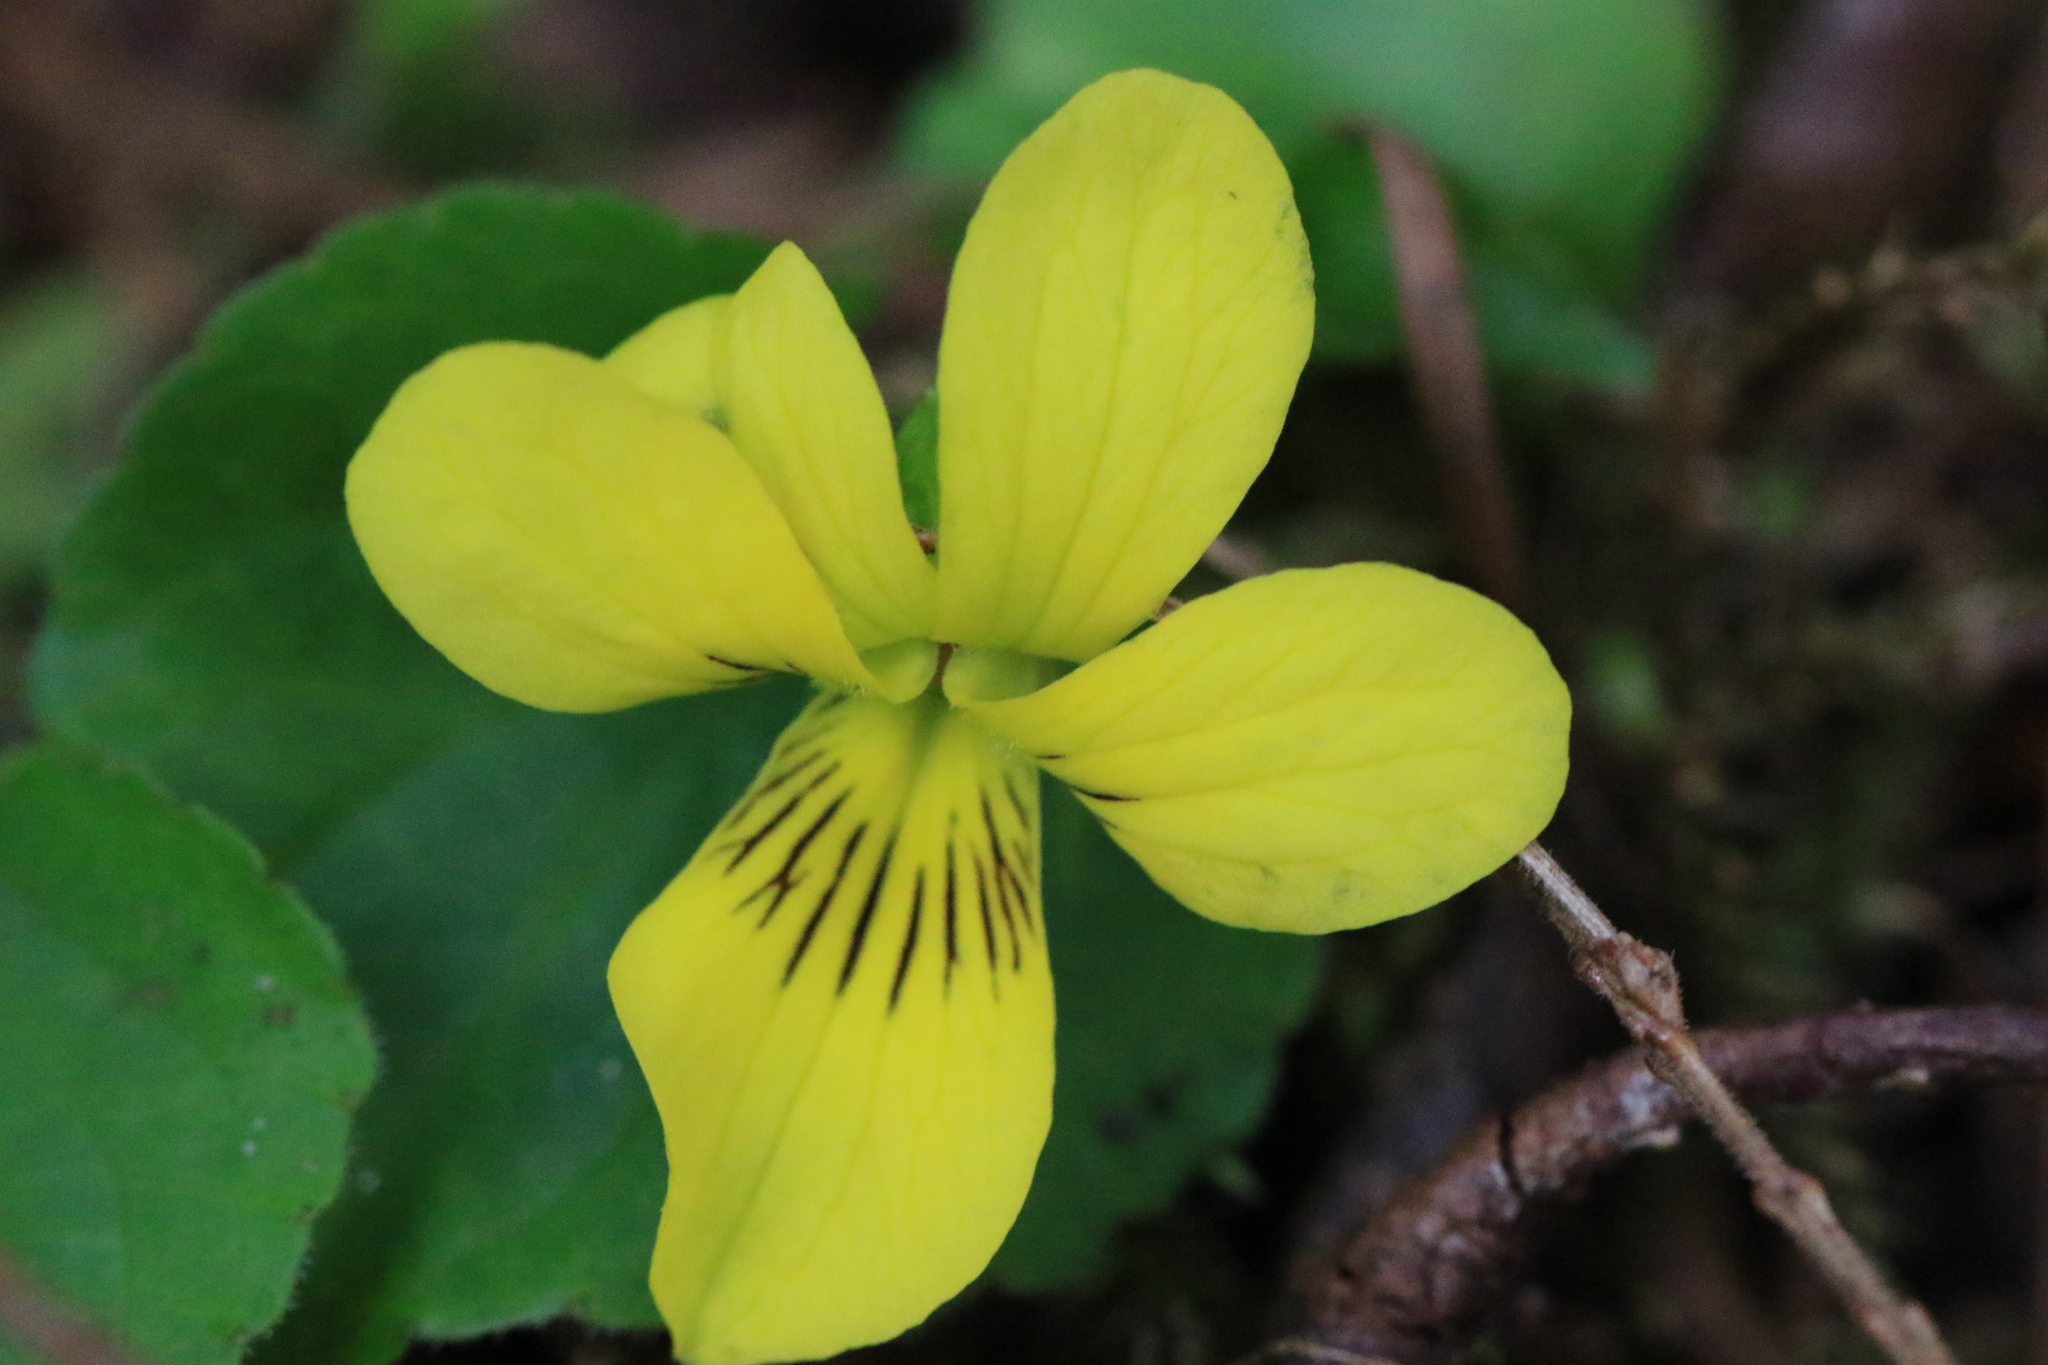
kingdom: Plantae
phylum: Tracheophyta
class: Magnoliopsida
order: Malpighiales
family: Violaceae
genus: Viola
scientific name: Viola glabella
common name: Stream violet
